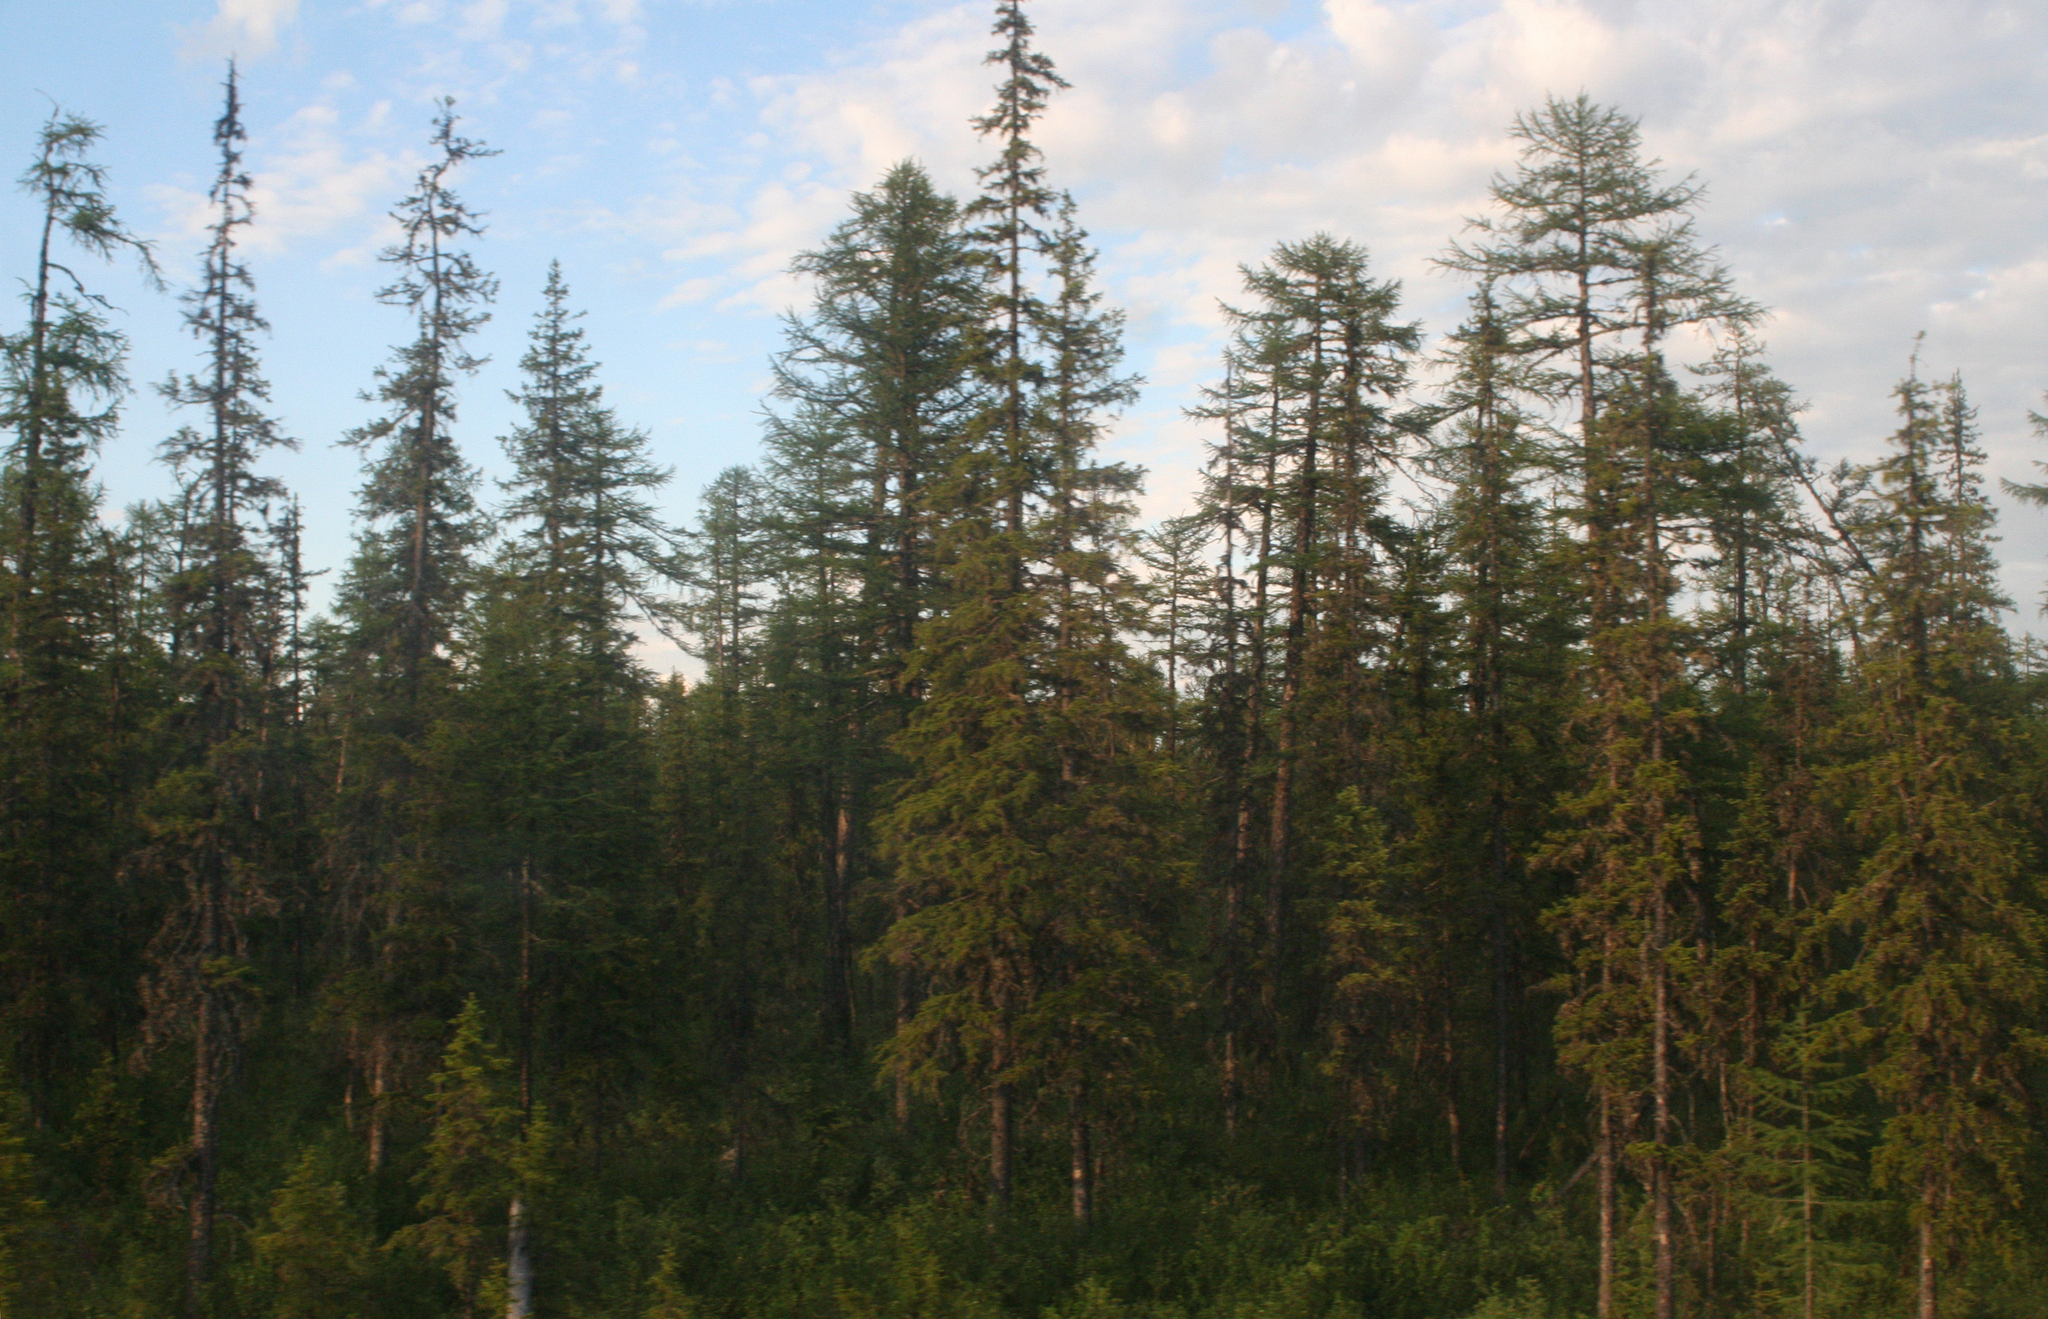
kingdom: Plantae
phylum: Tracheophyta
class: Pinopsida
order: Pinales
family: Pinaceae
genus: Larix
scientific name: Larix gmelinii
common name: Dahurian larch
